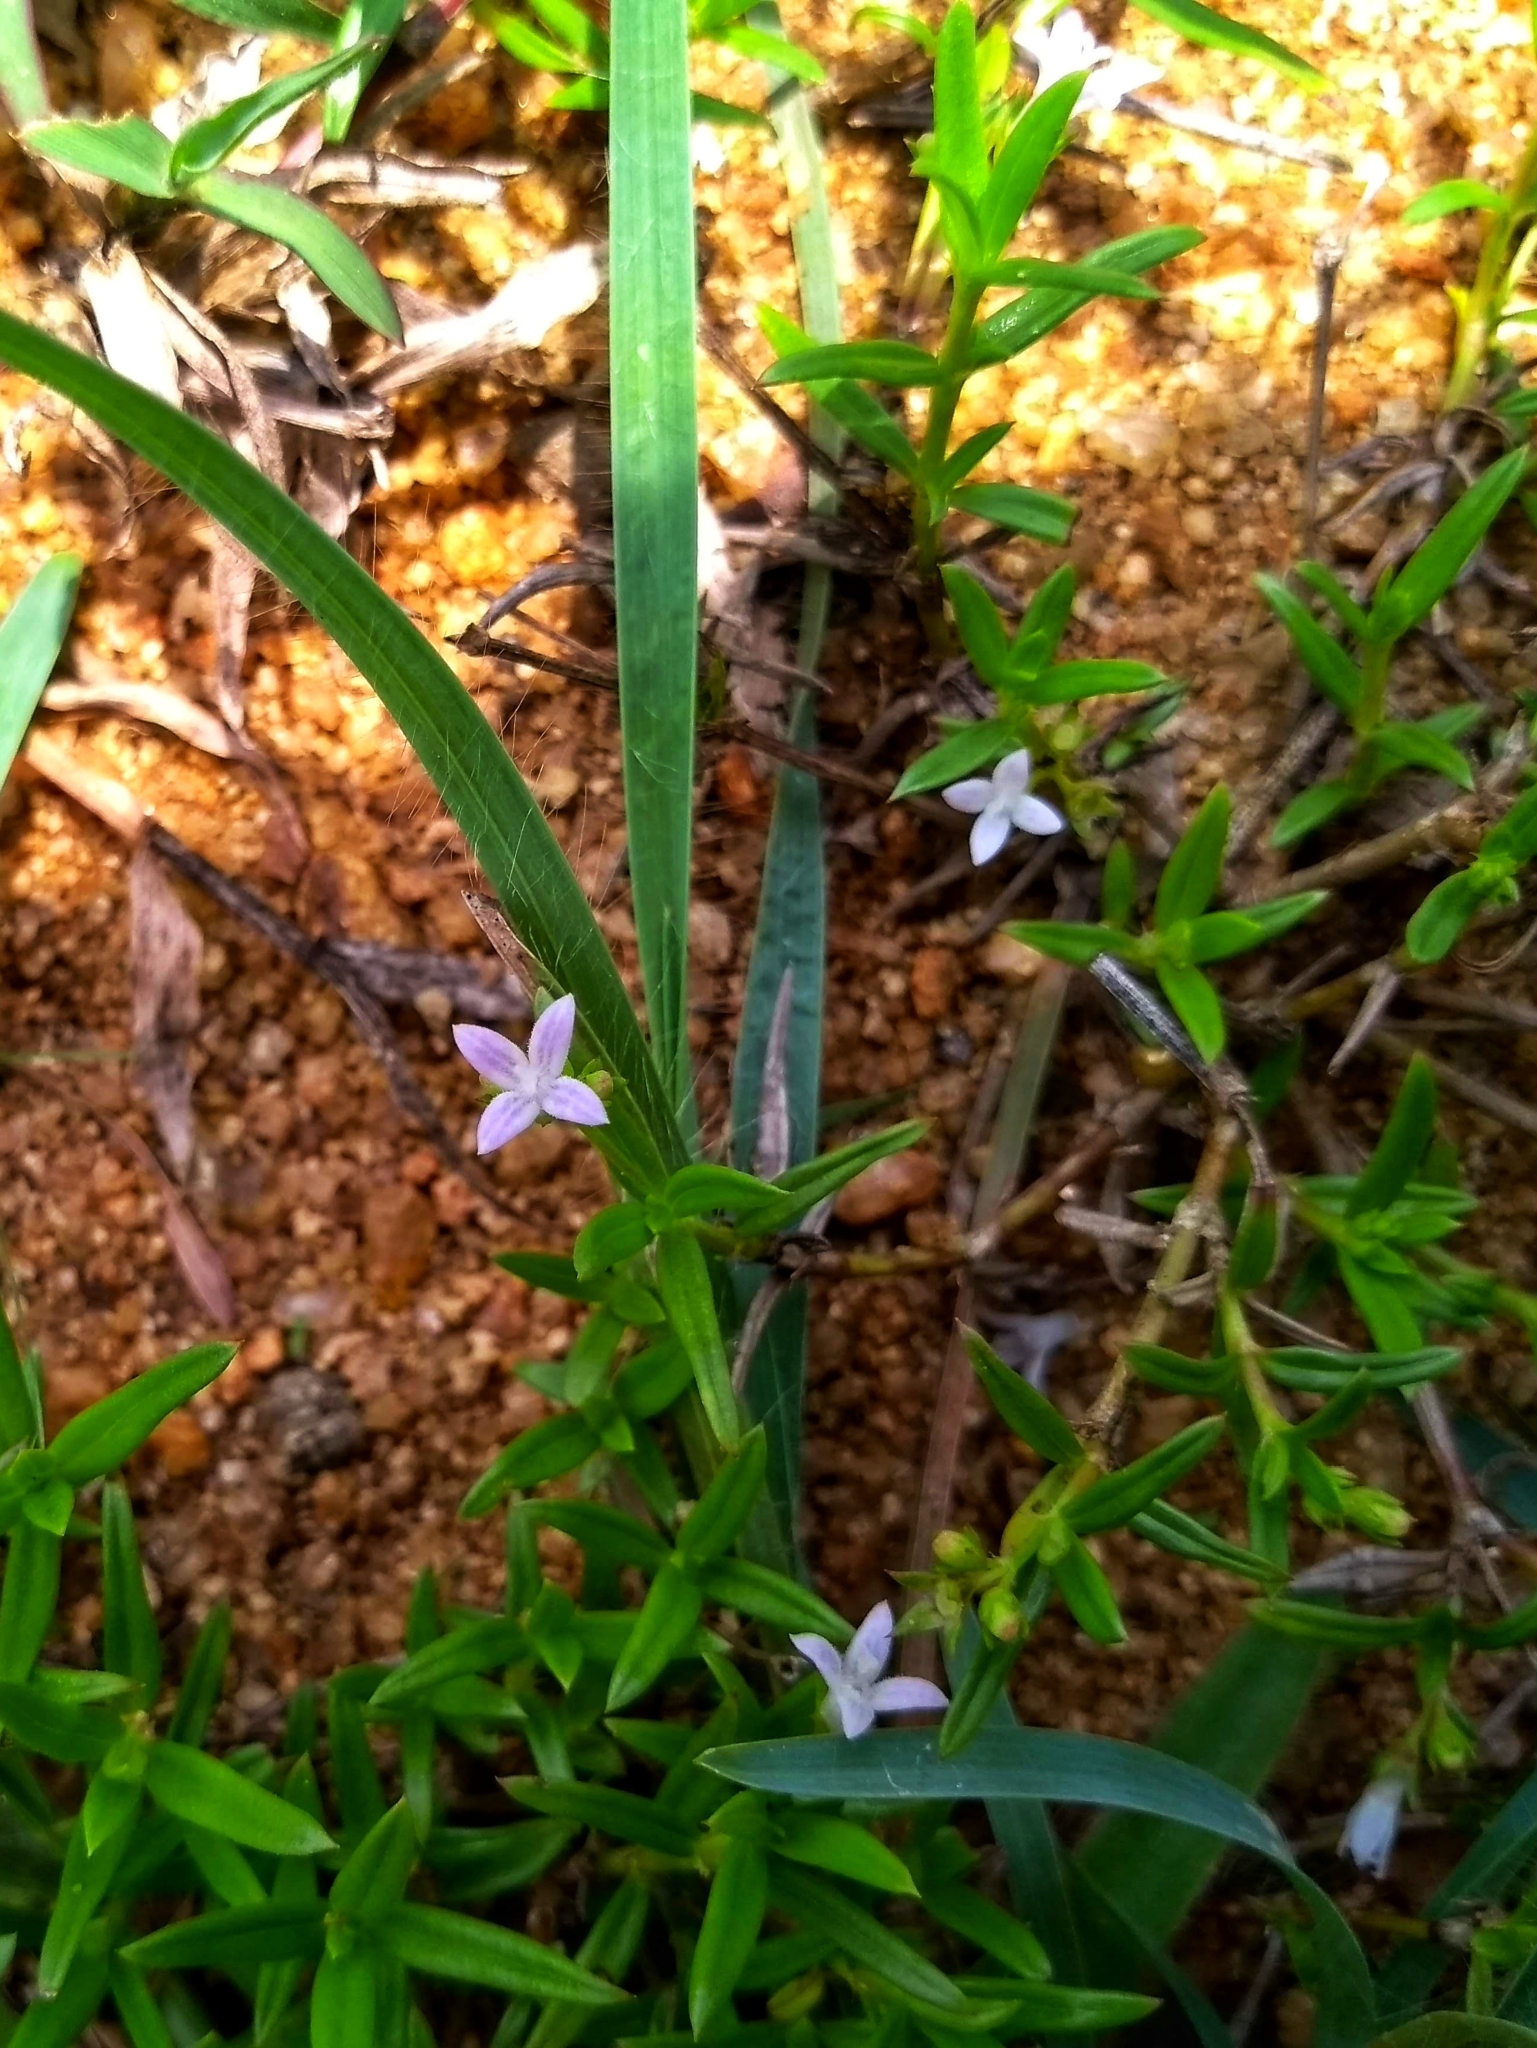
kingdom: Plantae
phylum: Tracheophyta
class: Magnoliopsida
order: Gentianales
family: Rubiaceae
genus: Oldenlandia
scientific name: Oldenlandia corymbosa
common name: Flat-top mille graines
